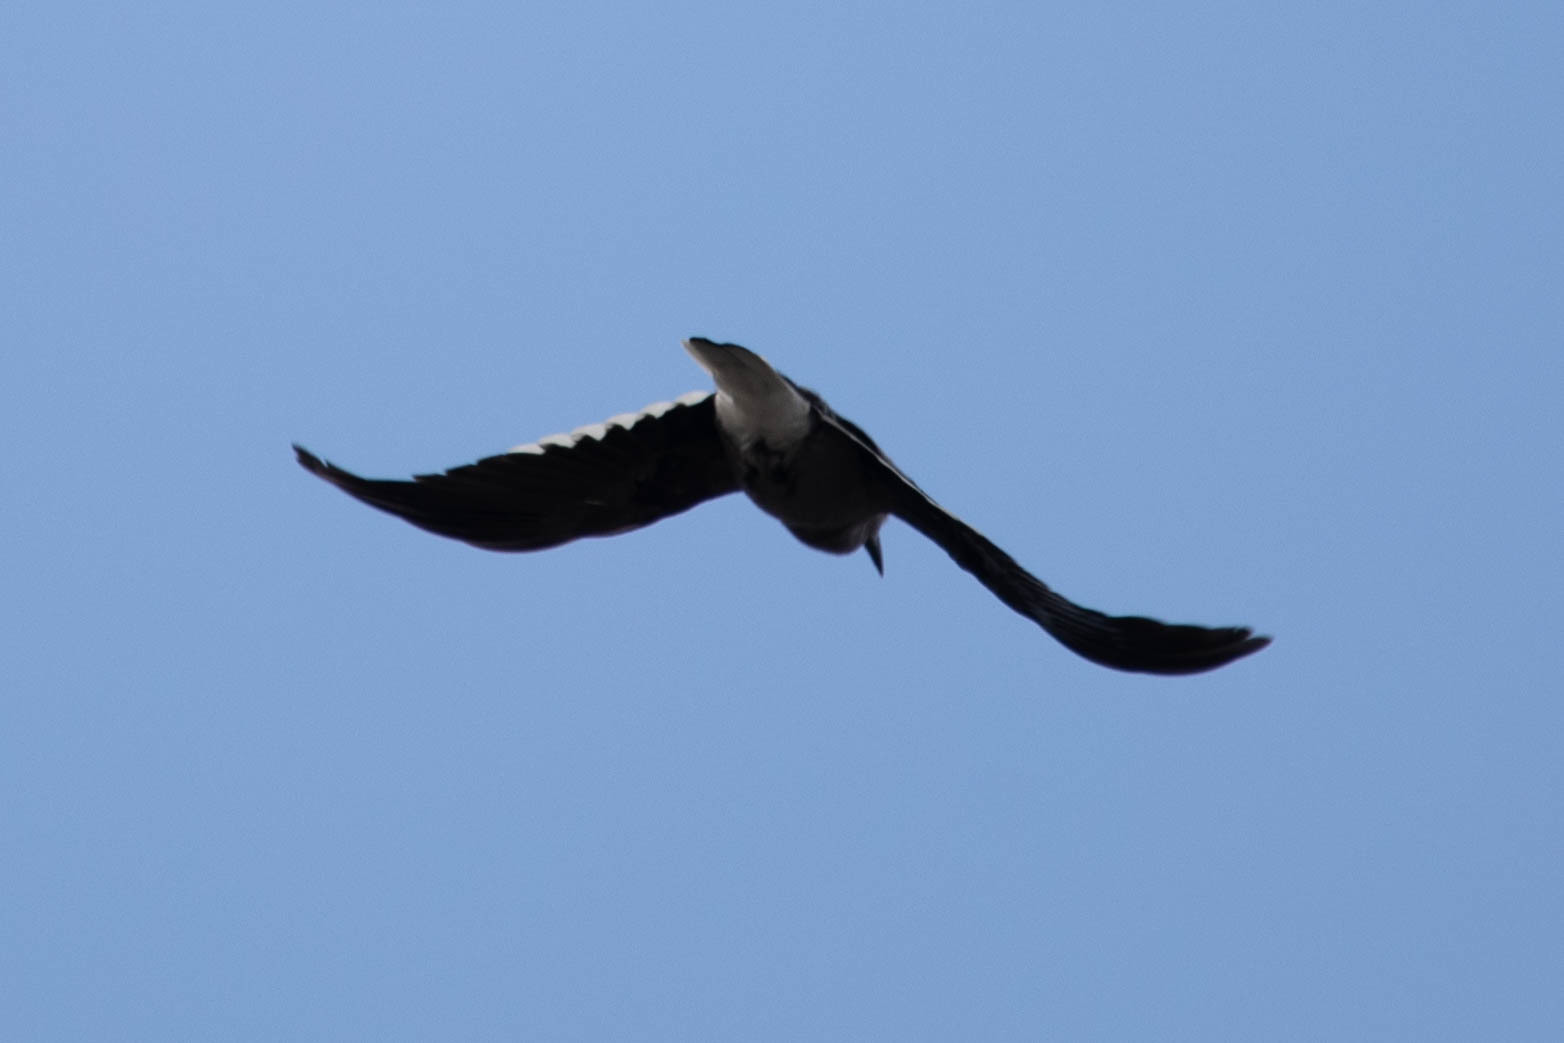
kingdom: Animalia
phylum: Chordata
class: Aves
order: Passeriformes
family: Corvidae
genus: Nucifraga
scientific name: Nucifraga columbiana
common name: Clark's nutcracker
